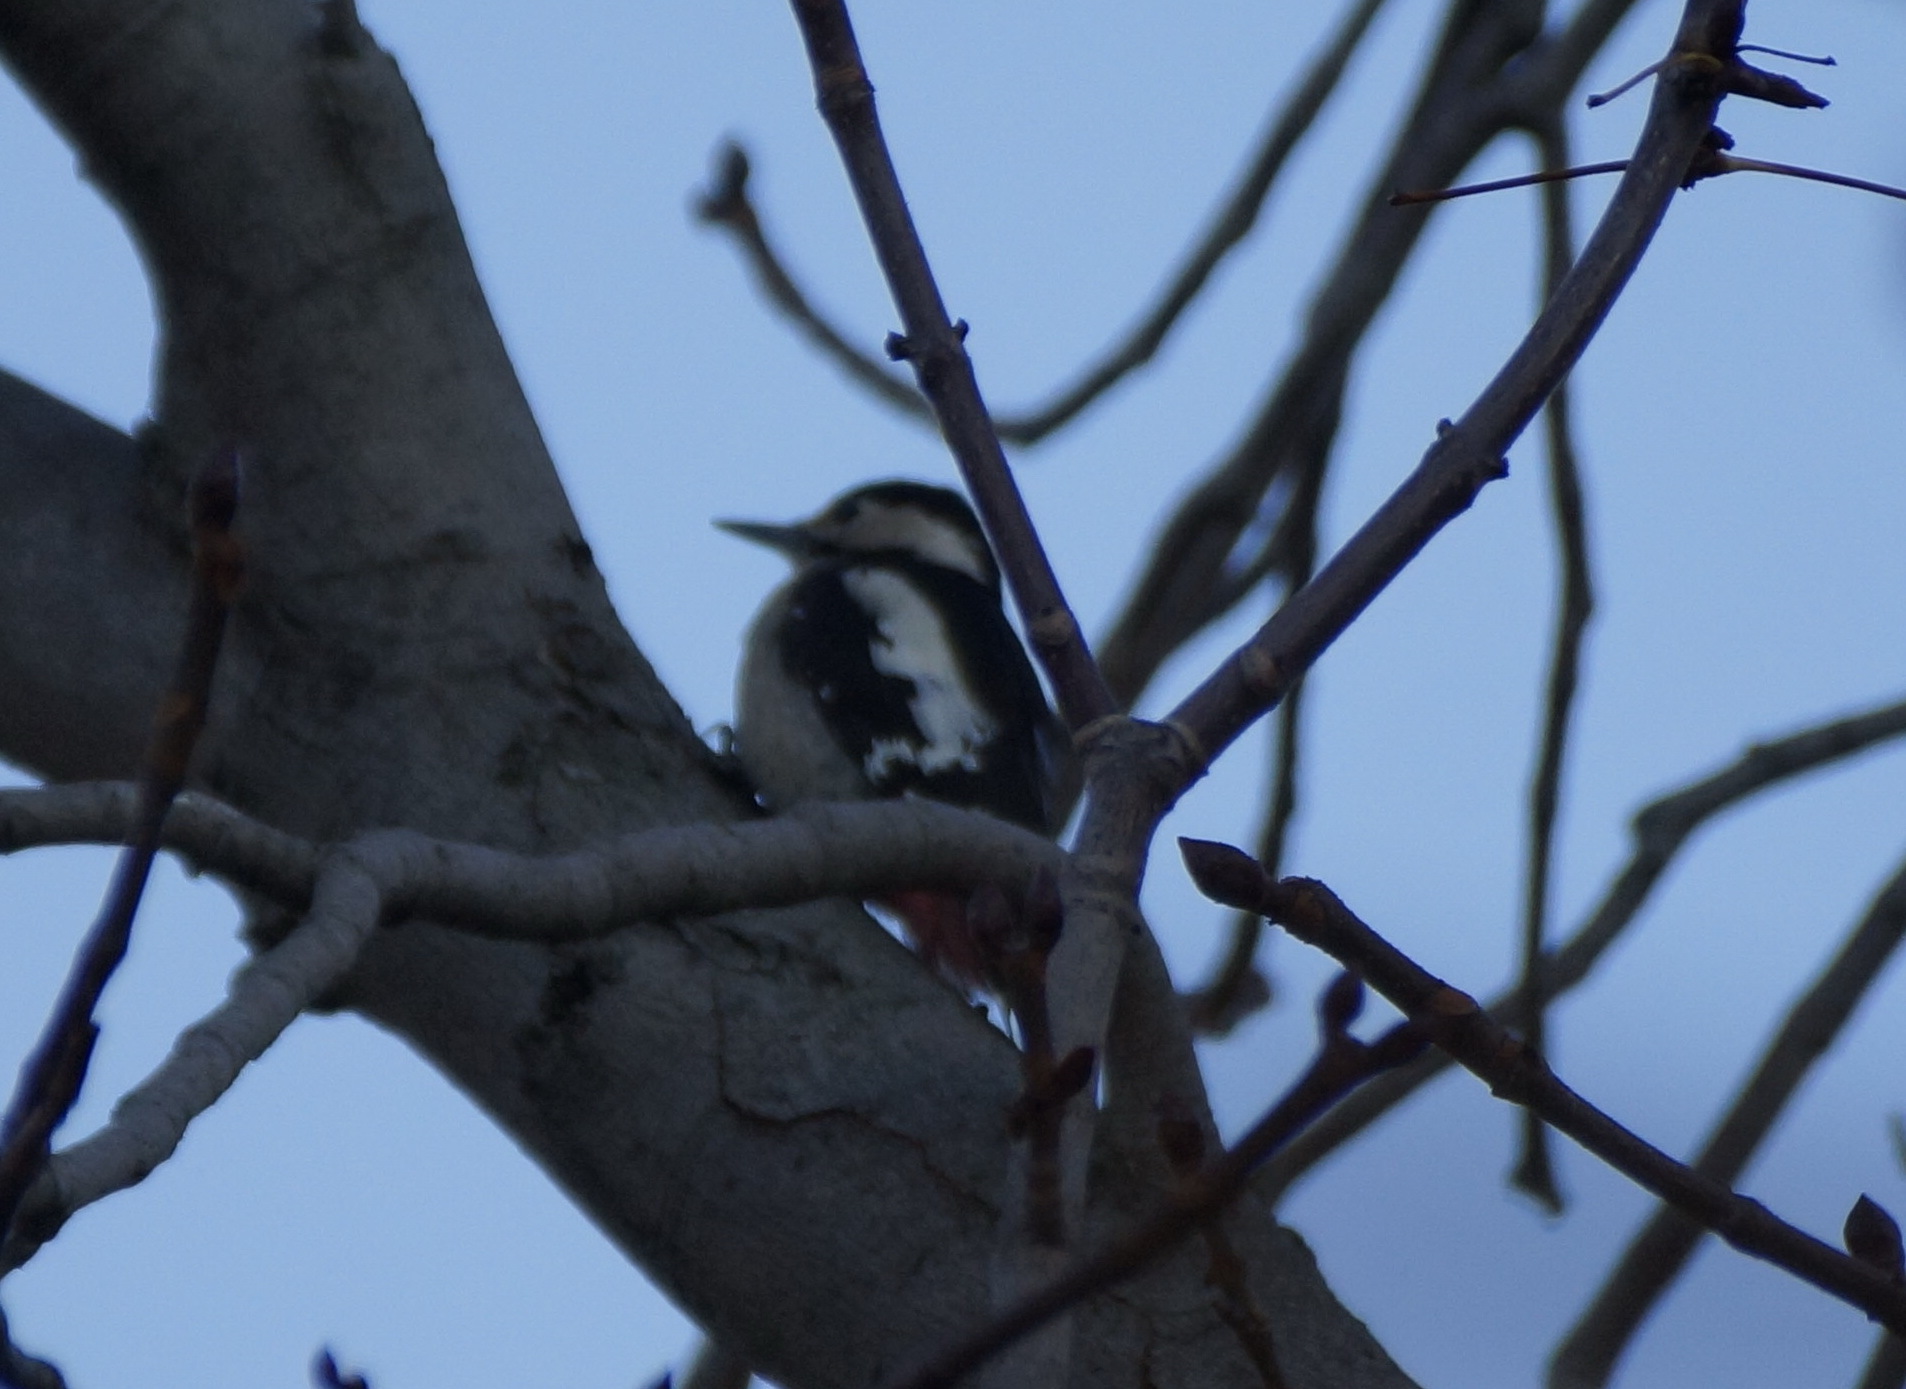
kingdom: Animalia
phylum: Chordata
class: Aves
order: Piciformes
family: Picidae
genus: Dendrocopos
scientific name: Dendrocopos syriacus
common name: Syrian woodpecker
